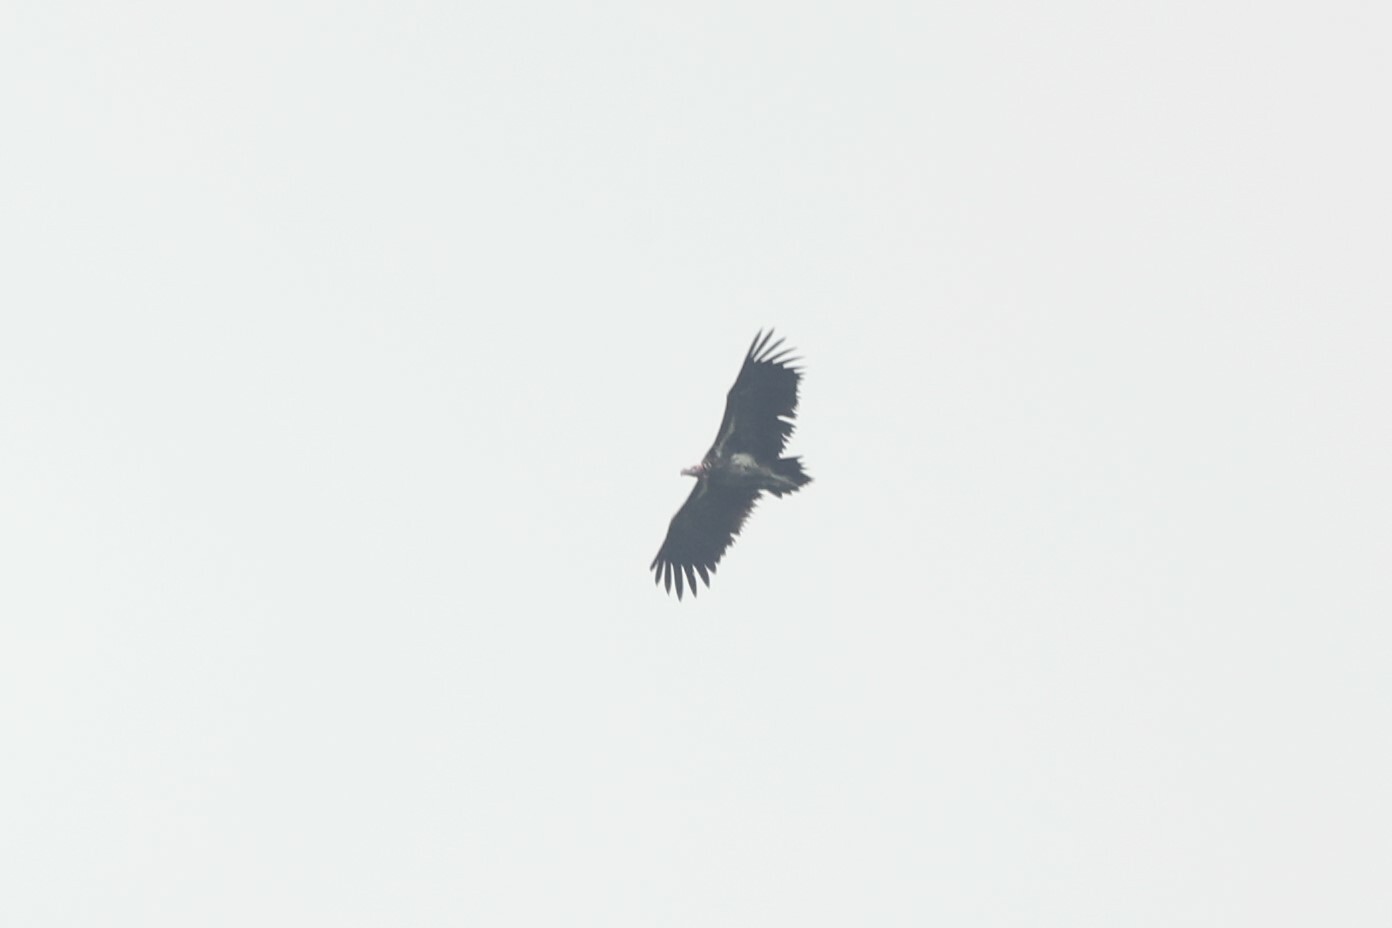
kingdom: Animalia
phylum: Chordata
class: Aves
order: Accipitriformes
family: Accipitridae
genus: Torgos
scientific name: Torgos tracheliotos
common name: Lappet-faced vulture
